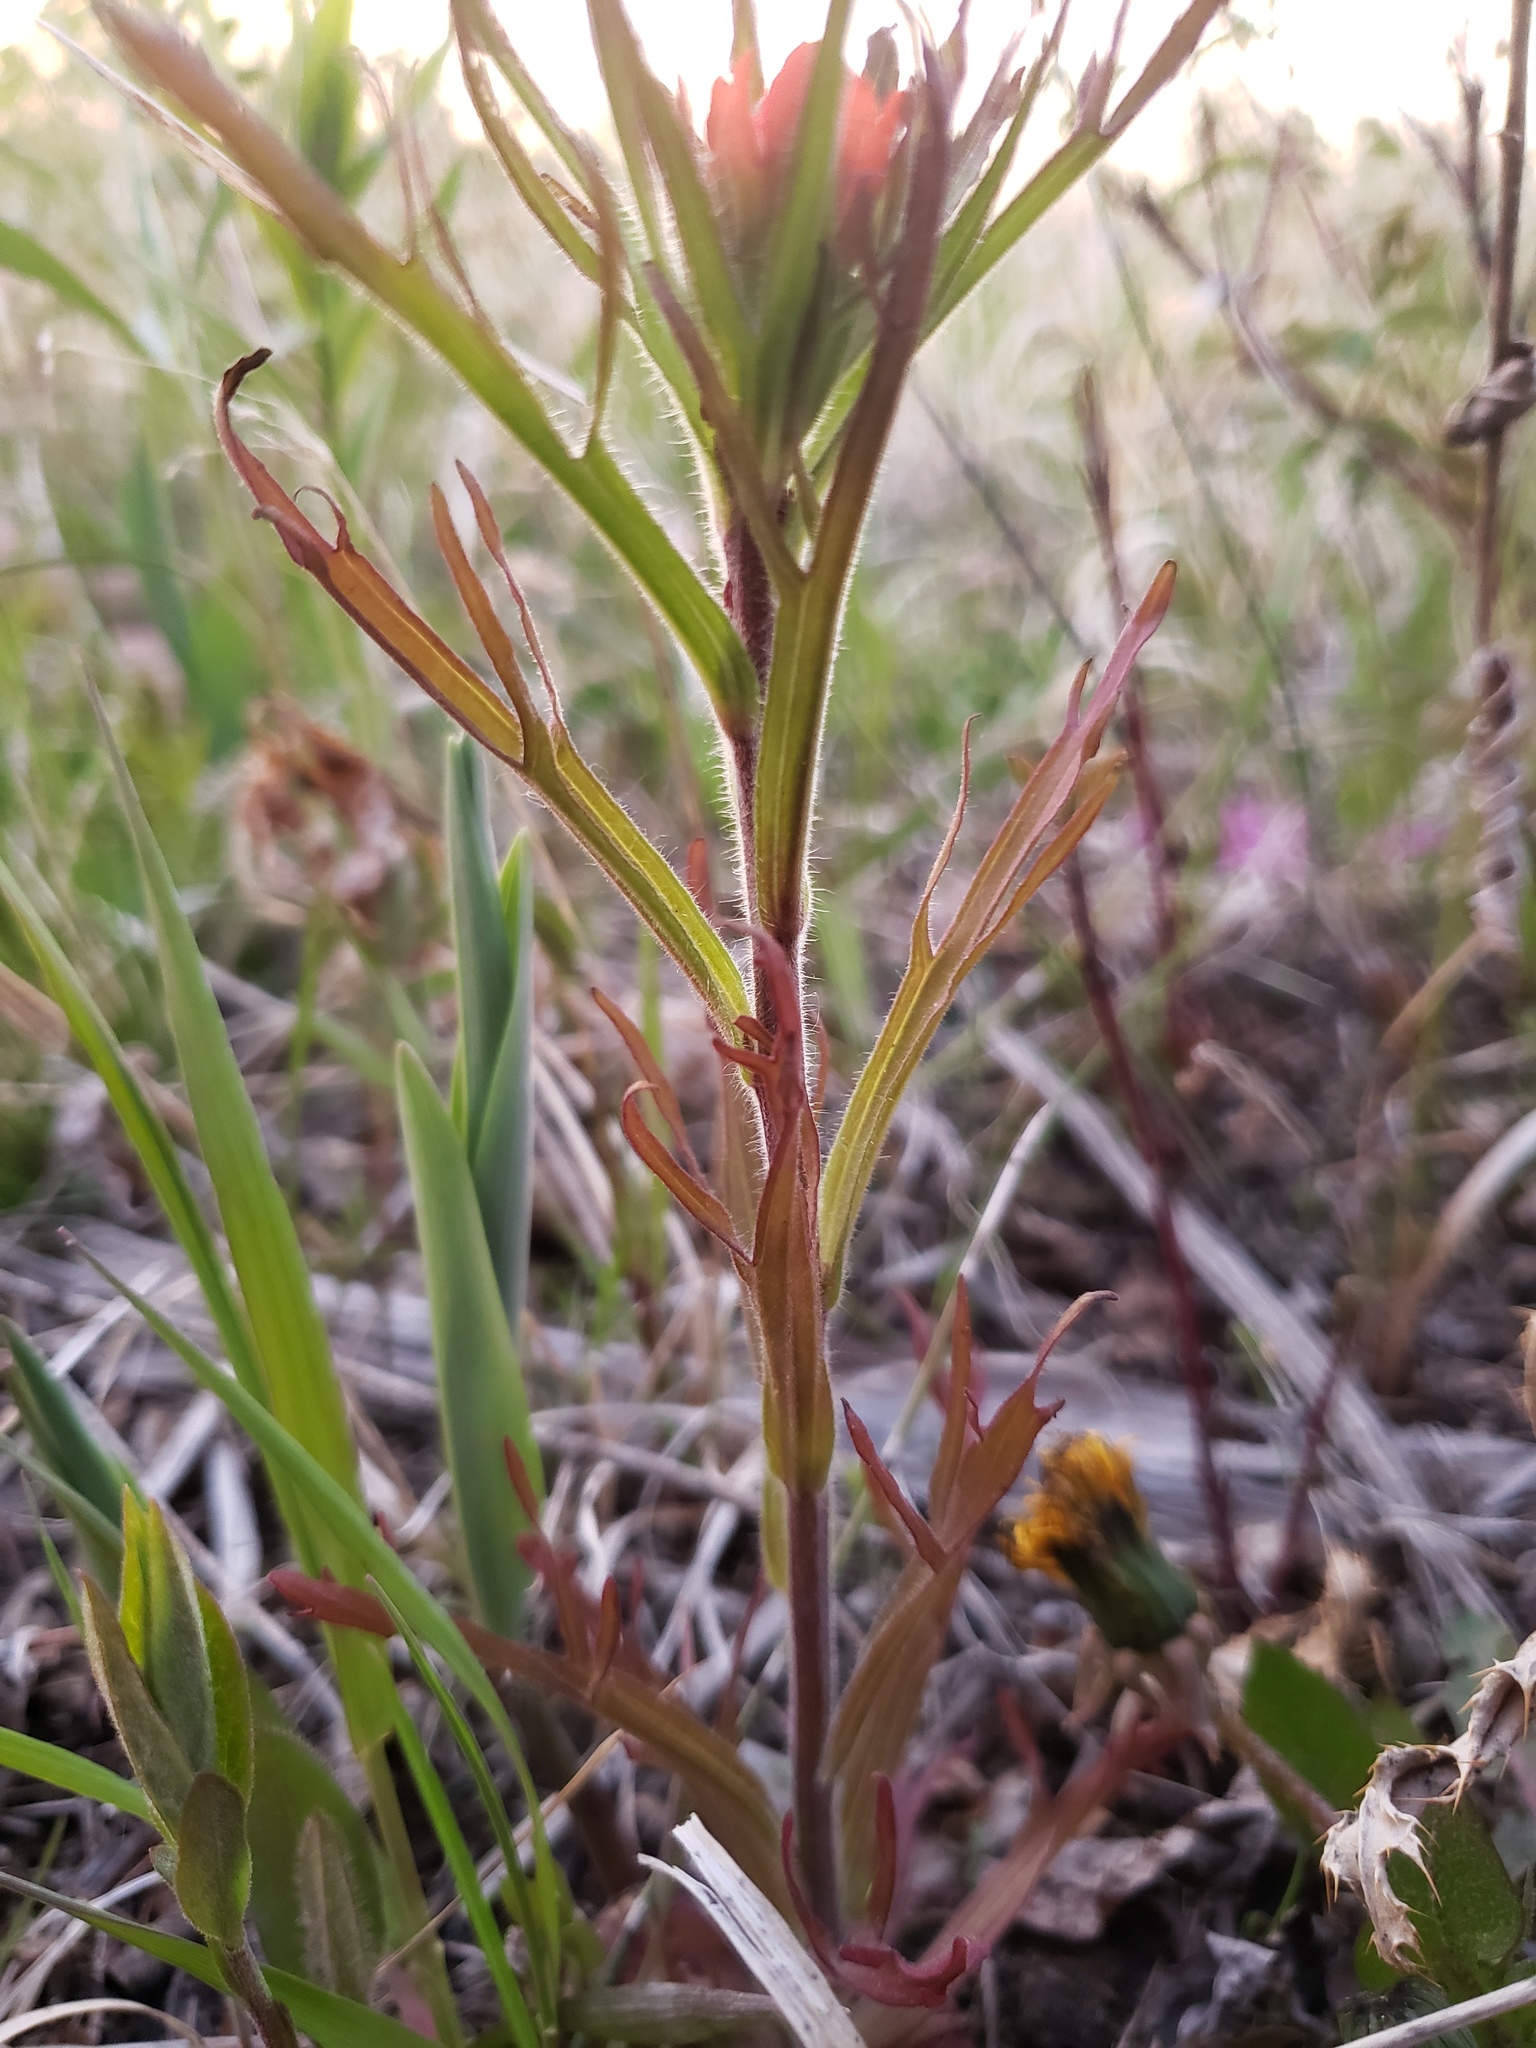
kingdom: Plantae
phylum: Tracheophyta
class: Magnoliopsida
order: Lamiales
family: Orobanchaceae
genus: Castilleja
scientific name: Castilleja coccinea
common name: Scarlet paintbrush
